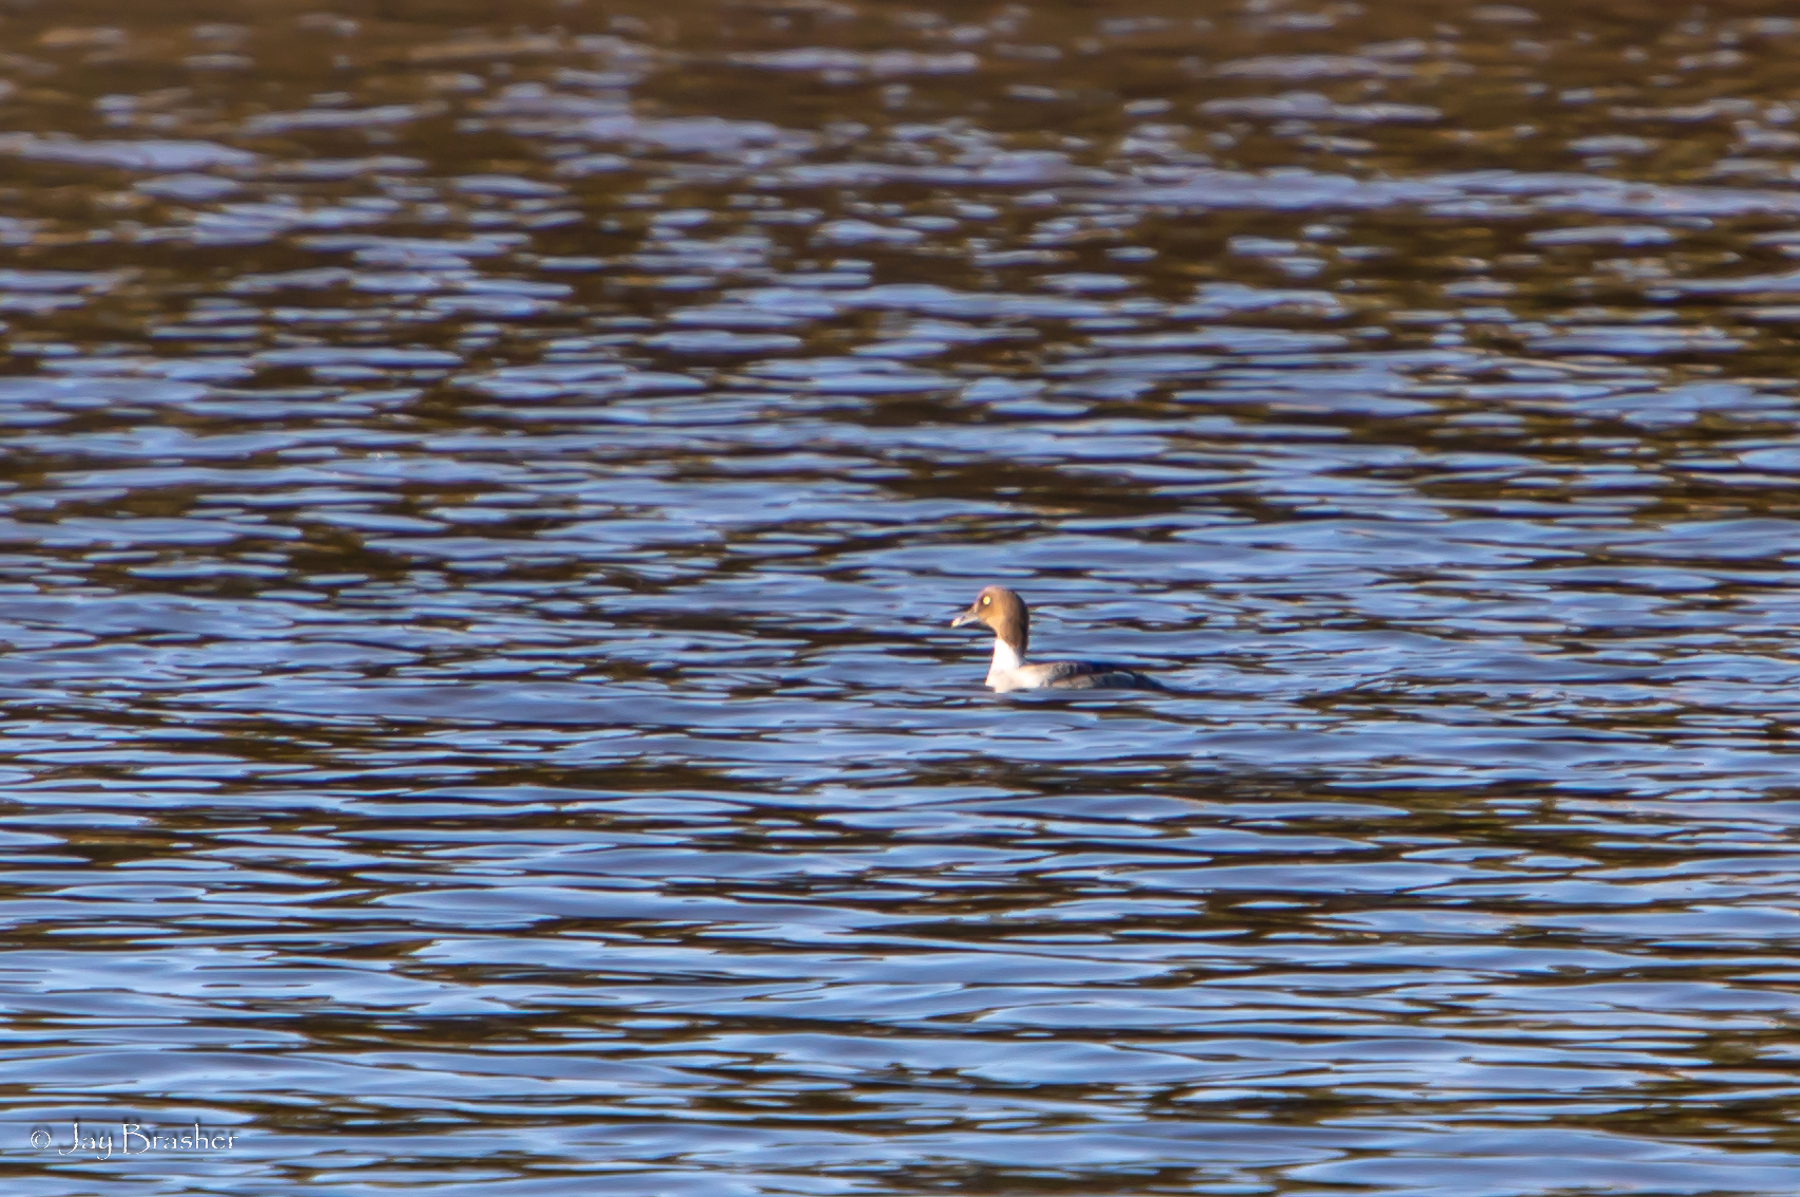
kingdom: Animalia
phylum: Chordata
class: Aves
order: Anseriformes
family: Anatidae
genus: Bucephala
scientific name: Bucephala clangula
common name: Common goldeneye
